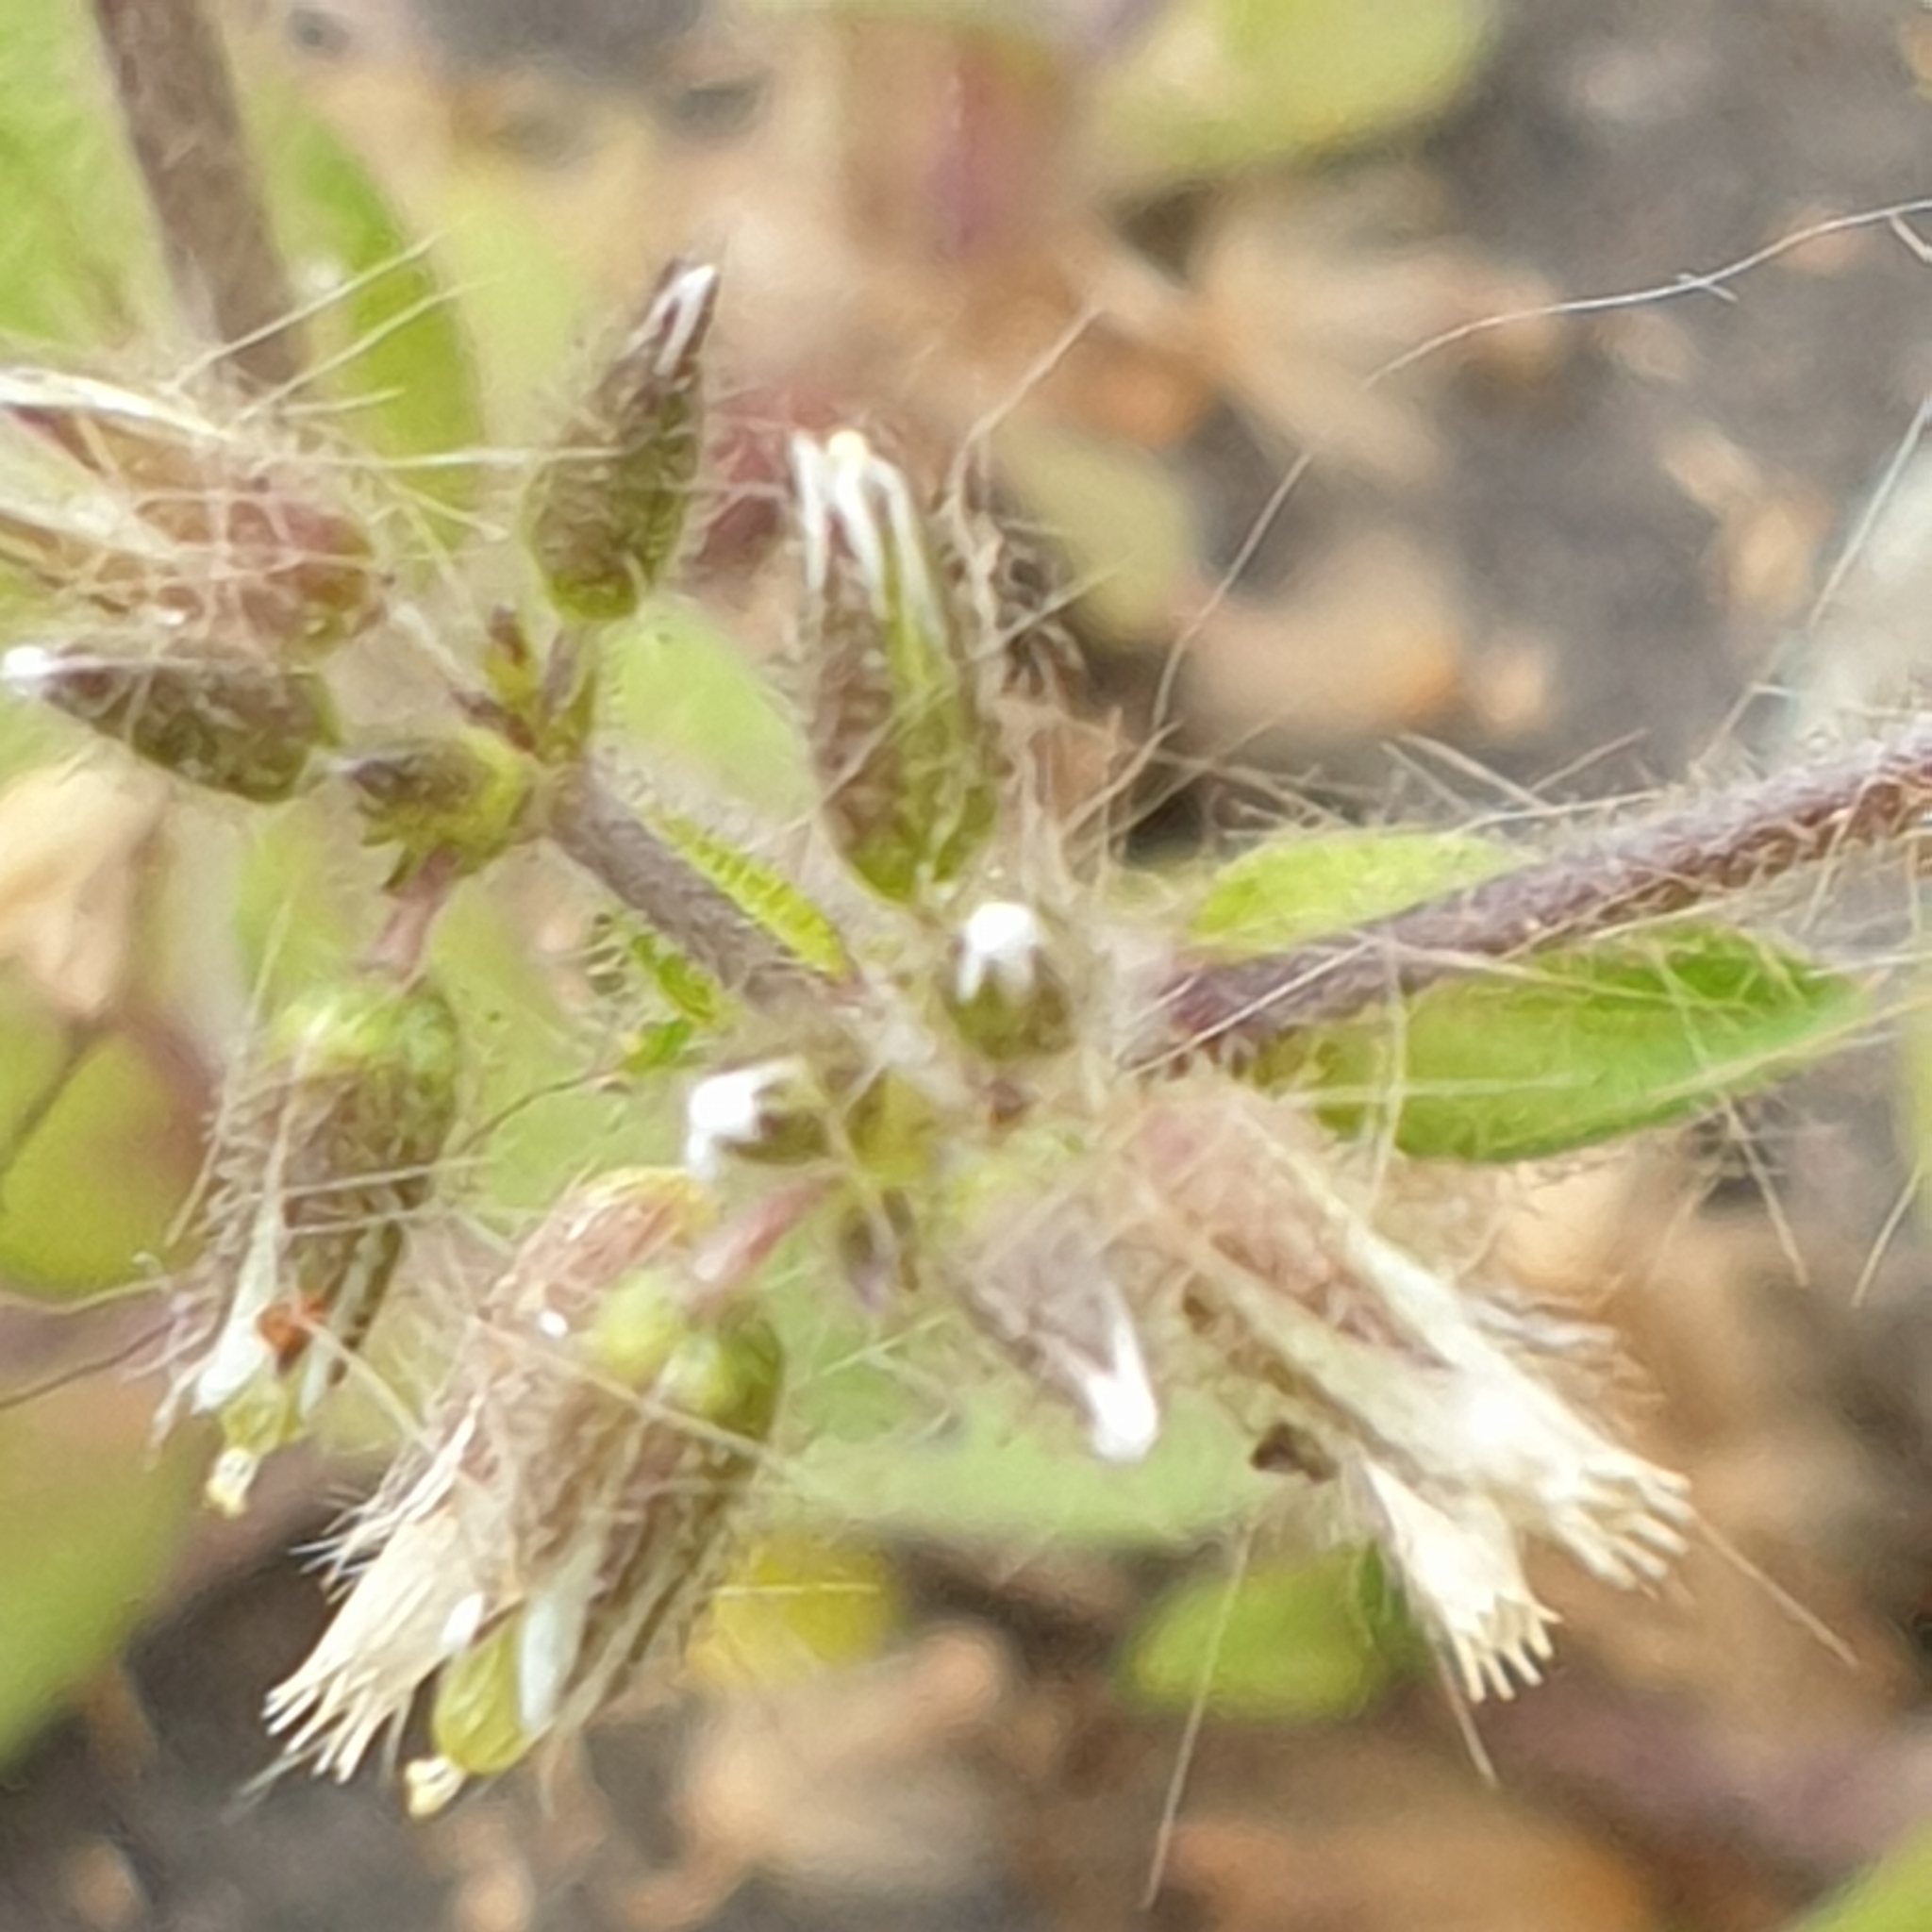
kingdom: Plantae
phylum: Tracheophyta
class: Magnoliopsida
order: Caryophyllales
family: Caryophyllaceae
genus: Cerastium
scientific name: Cerastium glomeratum
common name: Sticky chickweed
